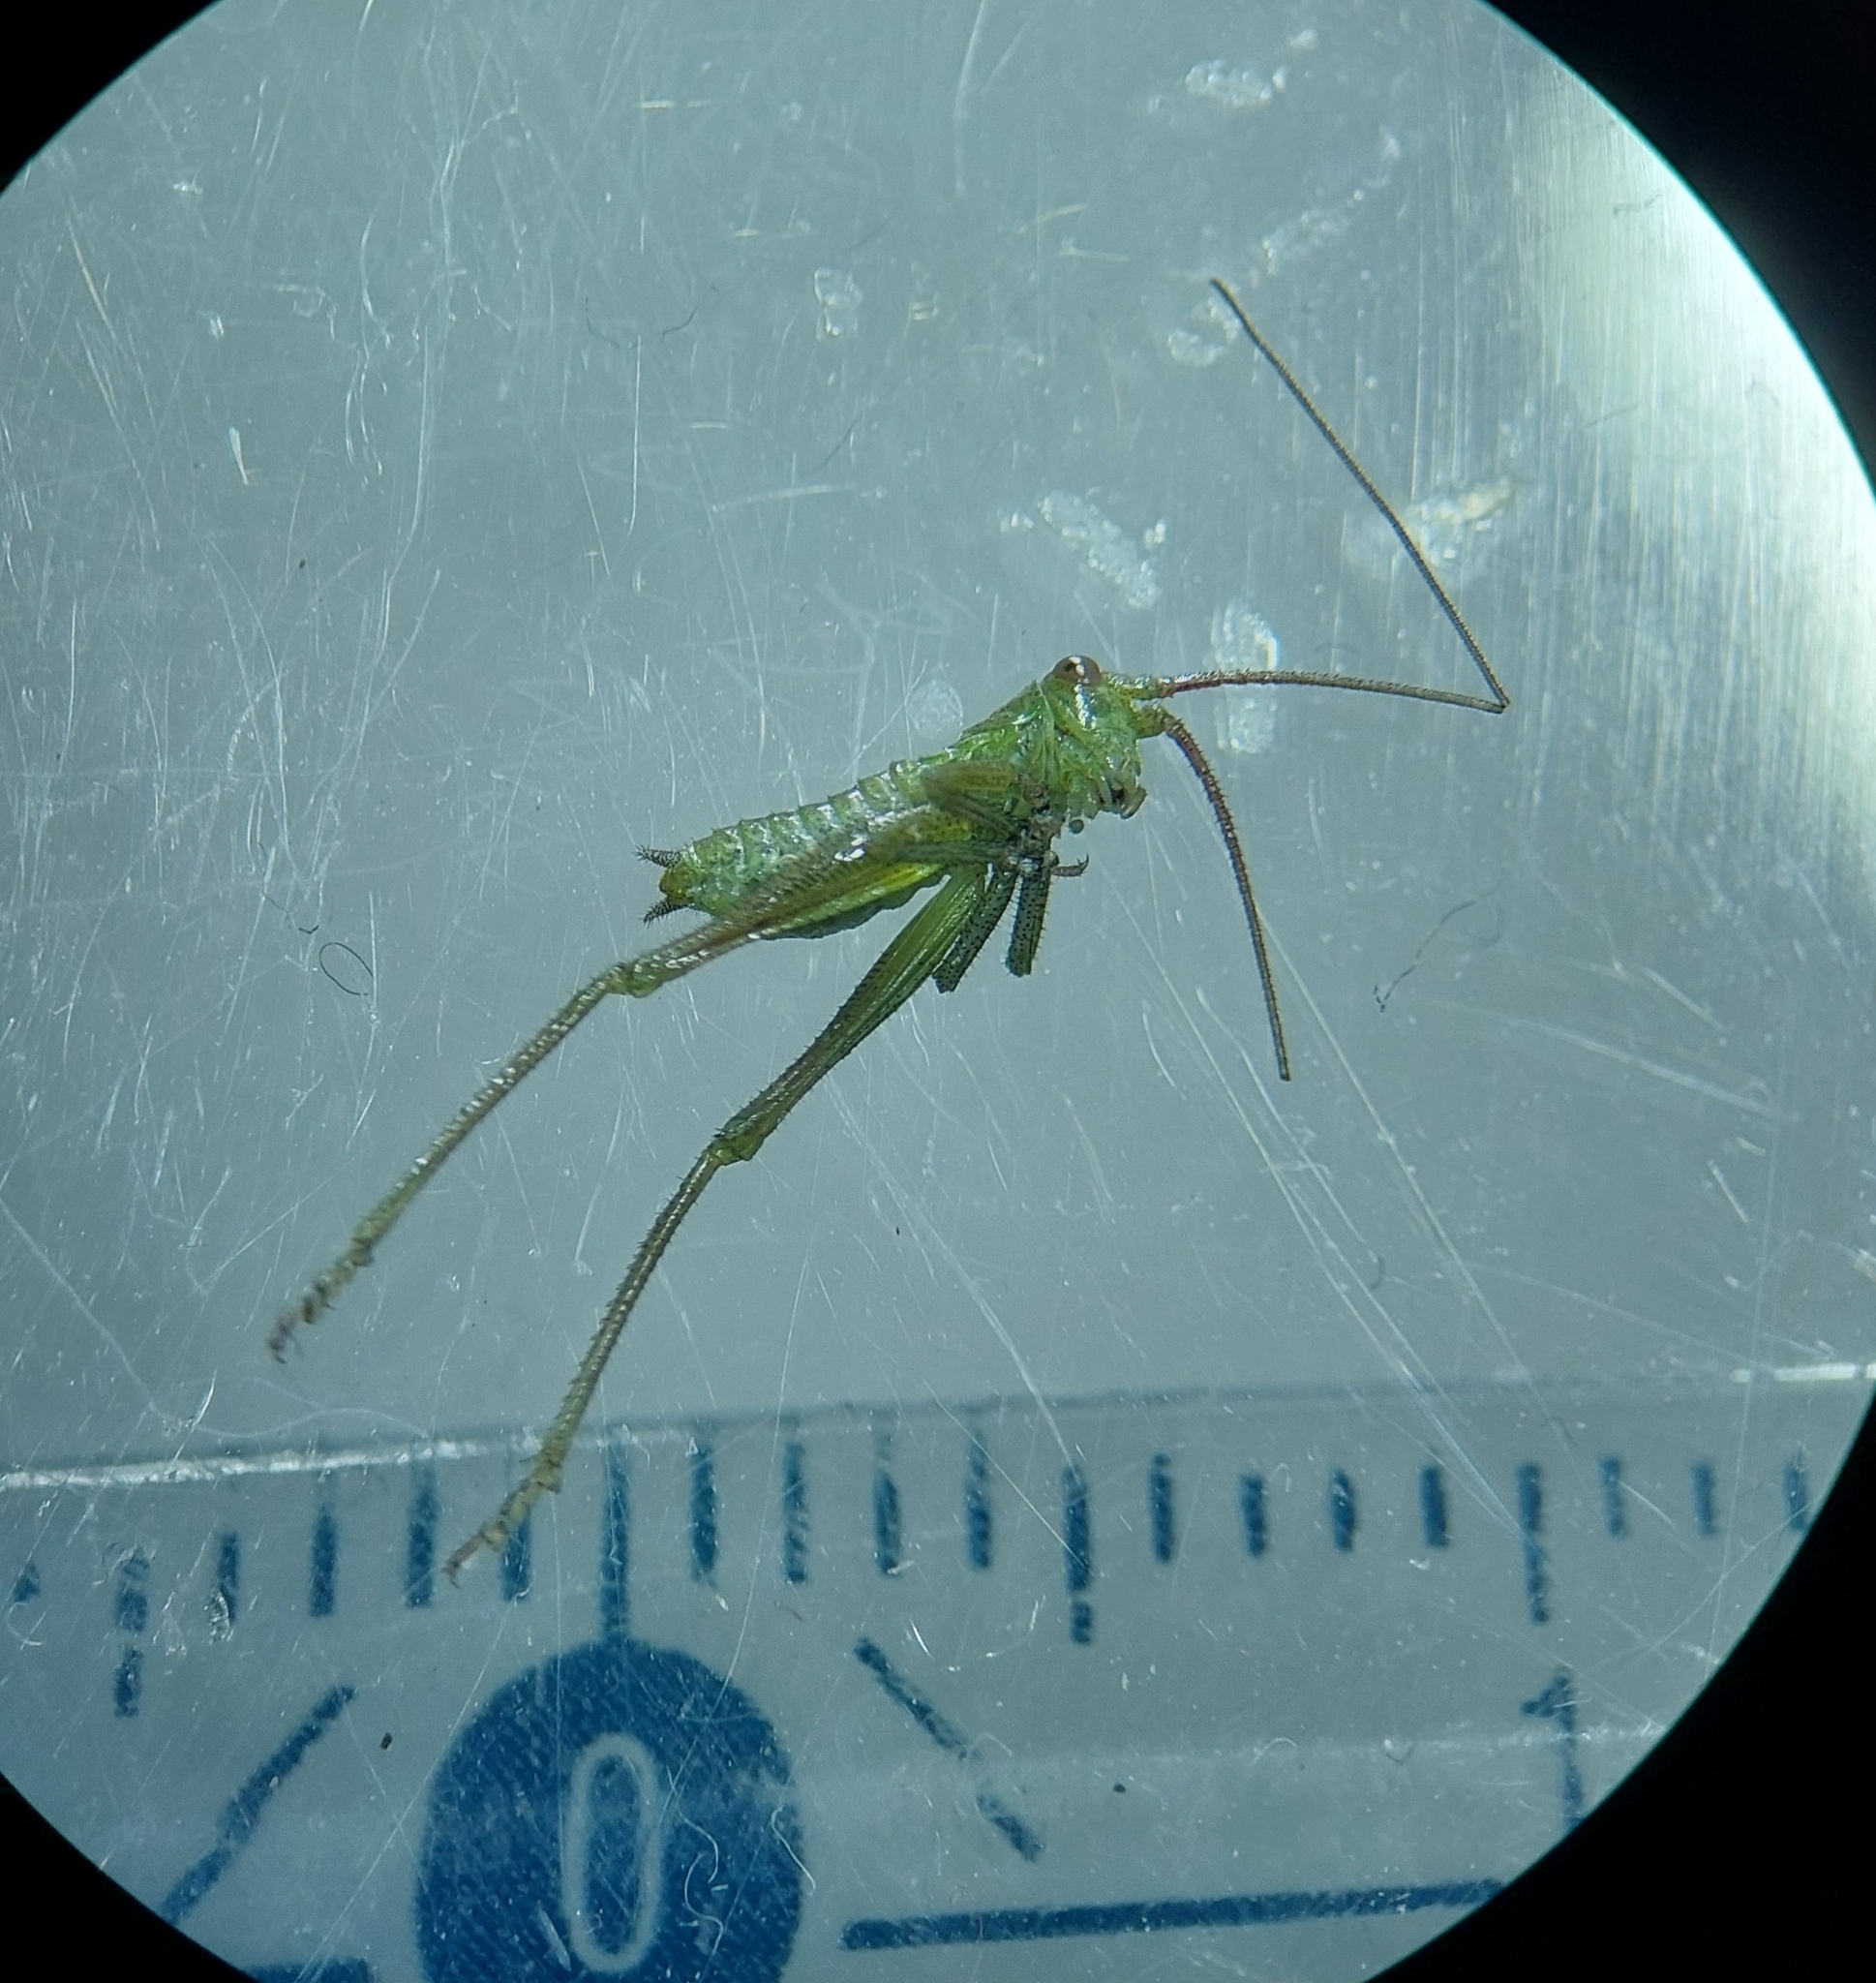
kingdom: Animalia
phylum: Arthropoda
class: Insecta
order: Orthoptera
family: Tettigoniidae
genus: Tettigonia
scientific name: Tettigonia viridissima
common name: Great green bush-cricket
